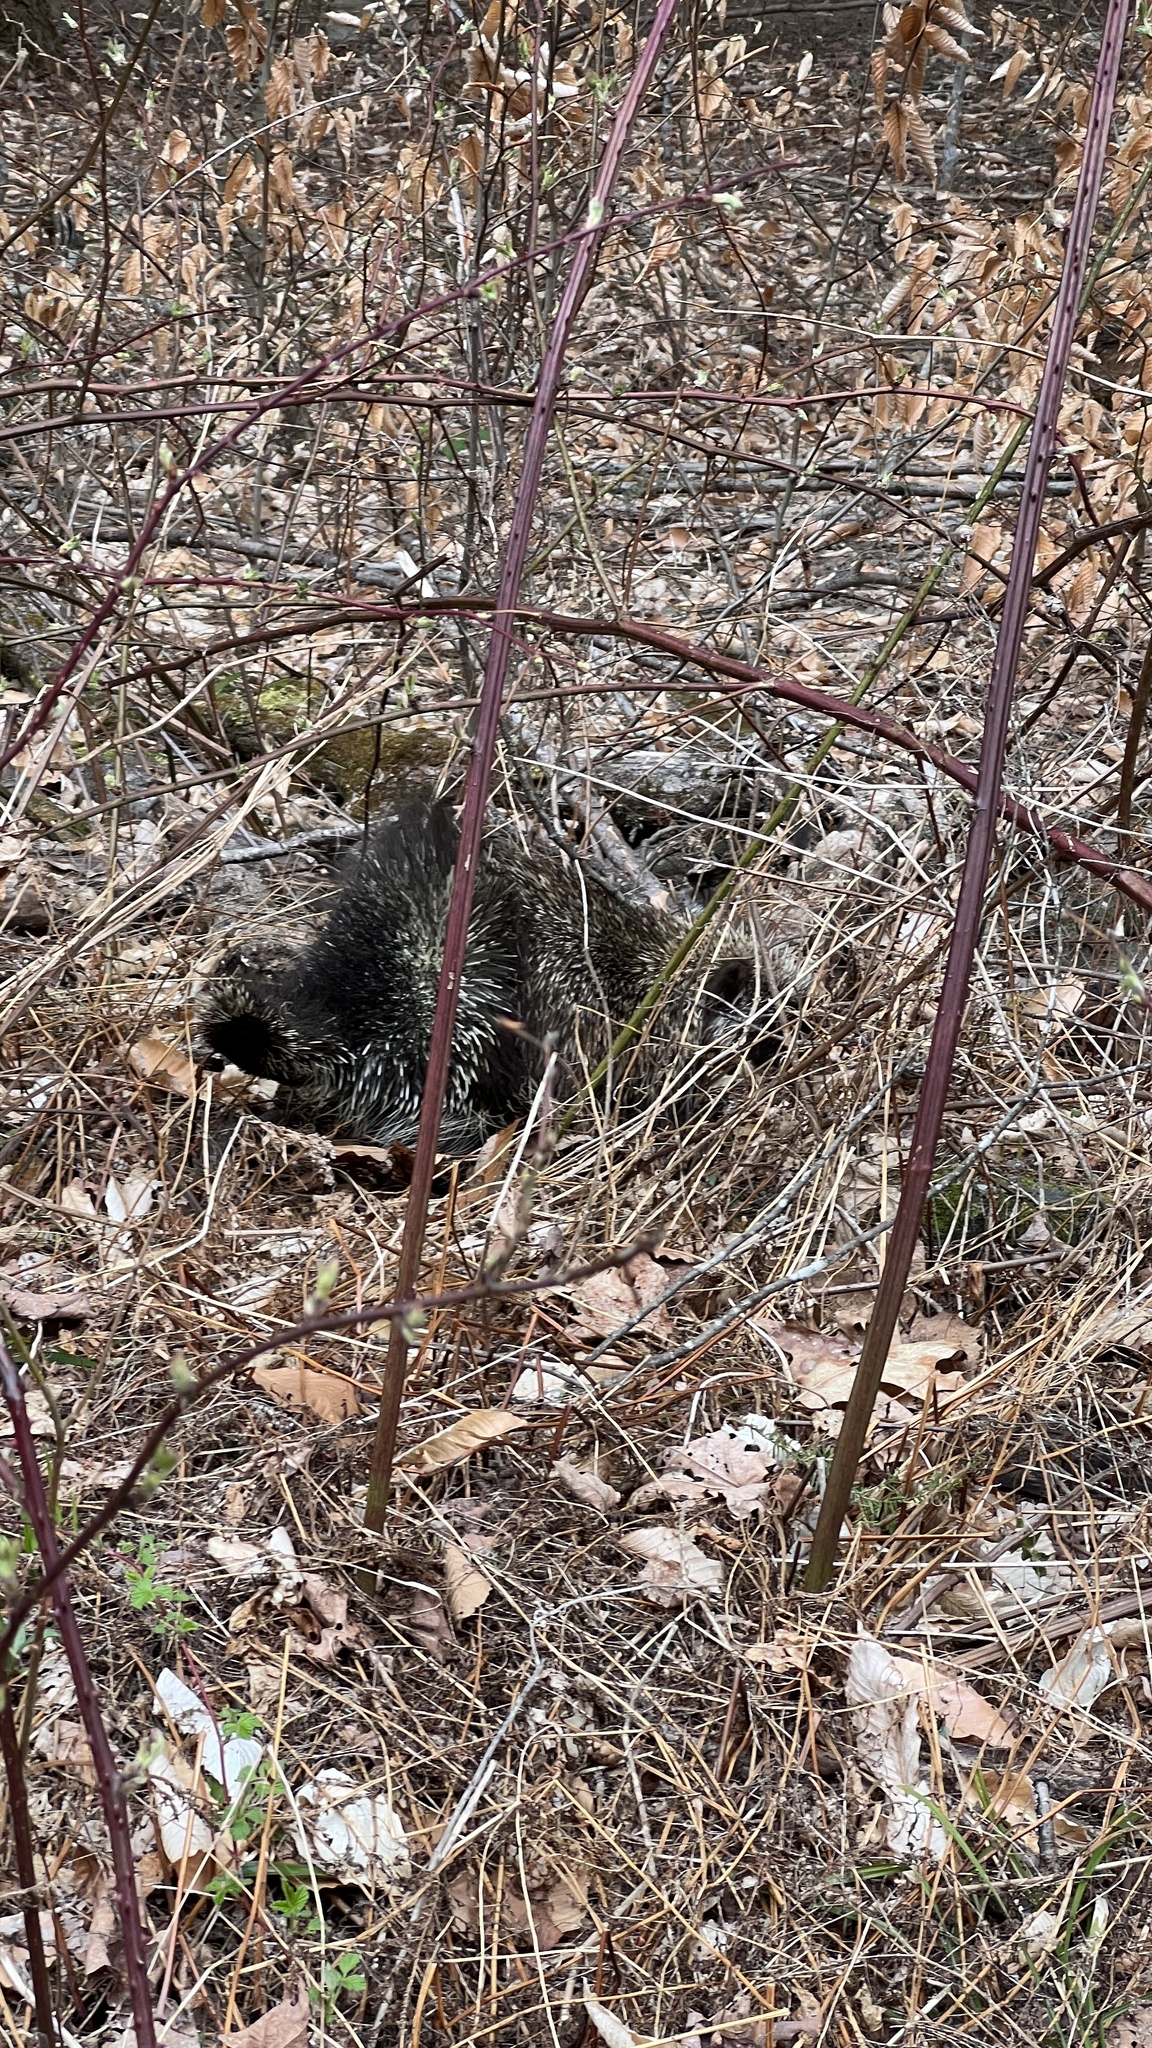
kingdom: Animalia
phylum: Chordata
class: Mammalia
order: Rodentia
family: Erethizontidae
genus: Erethizon
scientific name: Erethizon dorsatus
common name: North american porcupine
